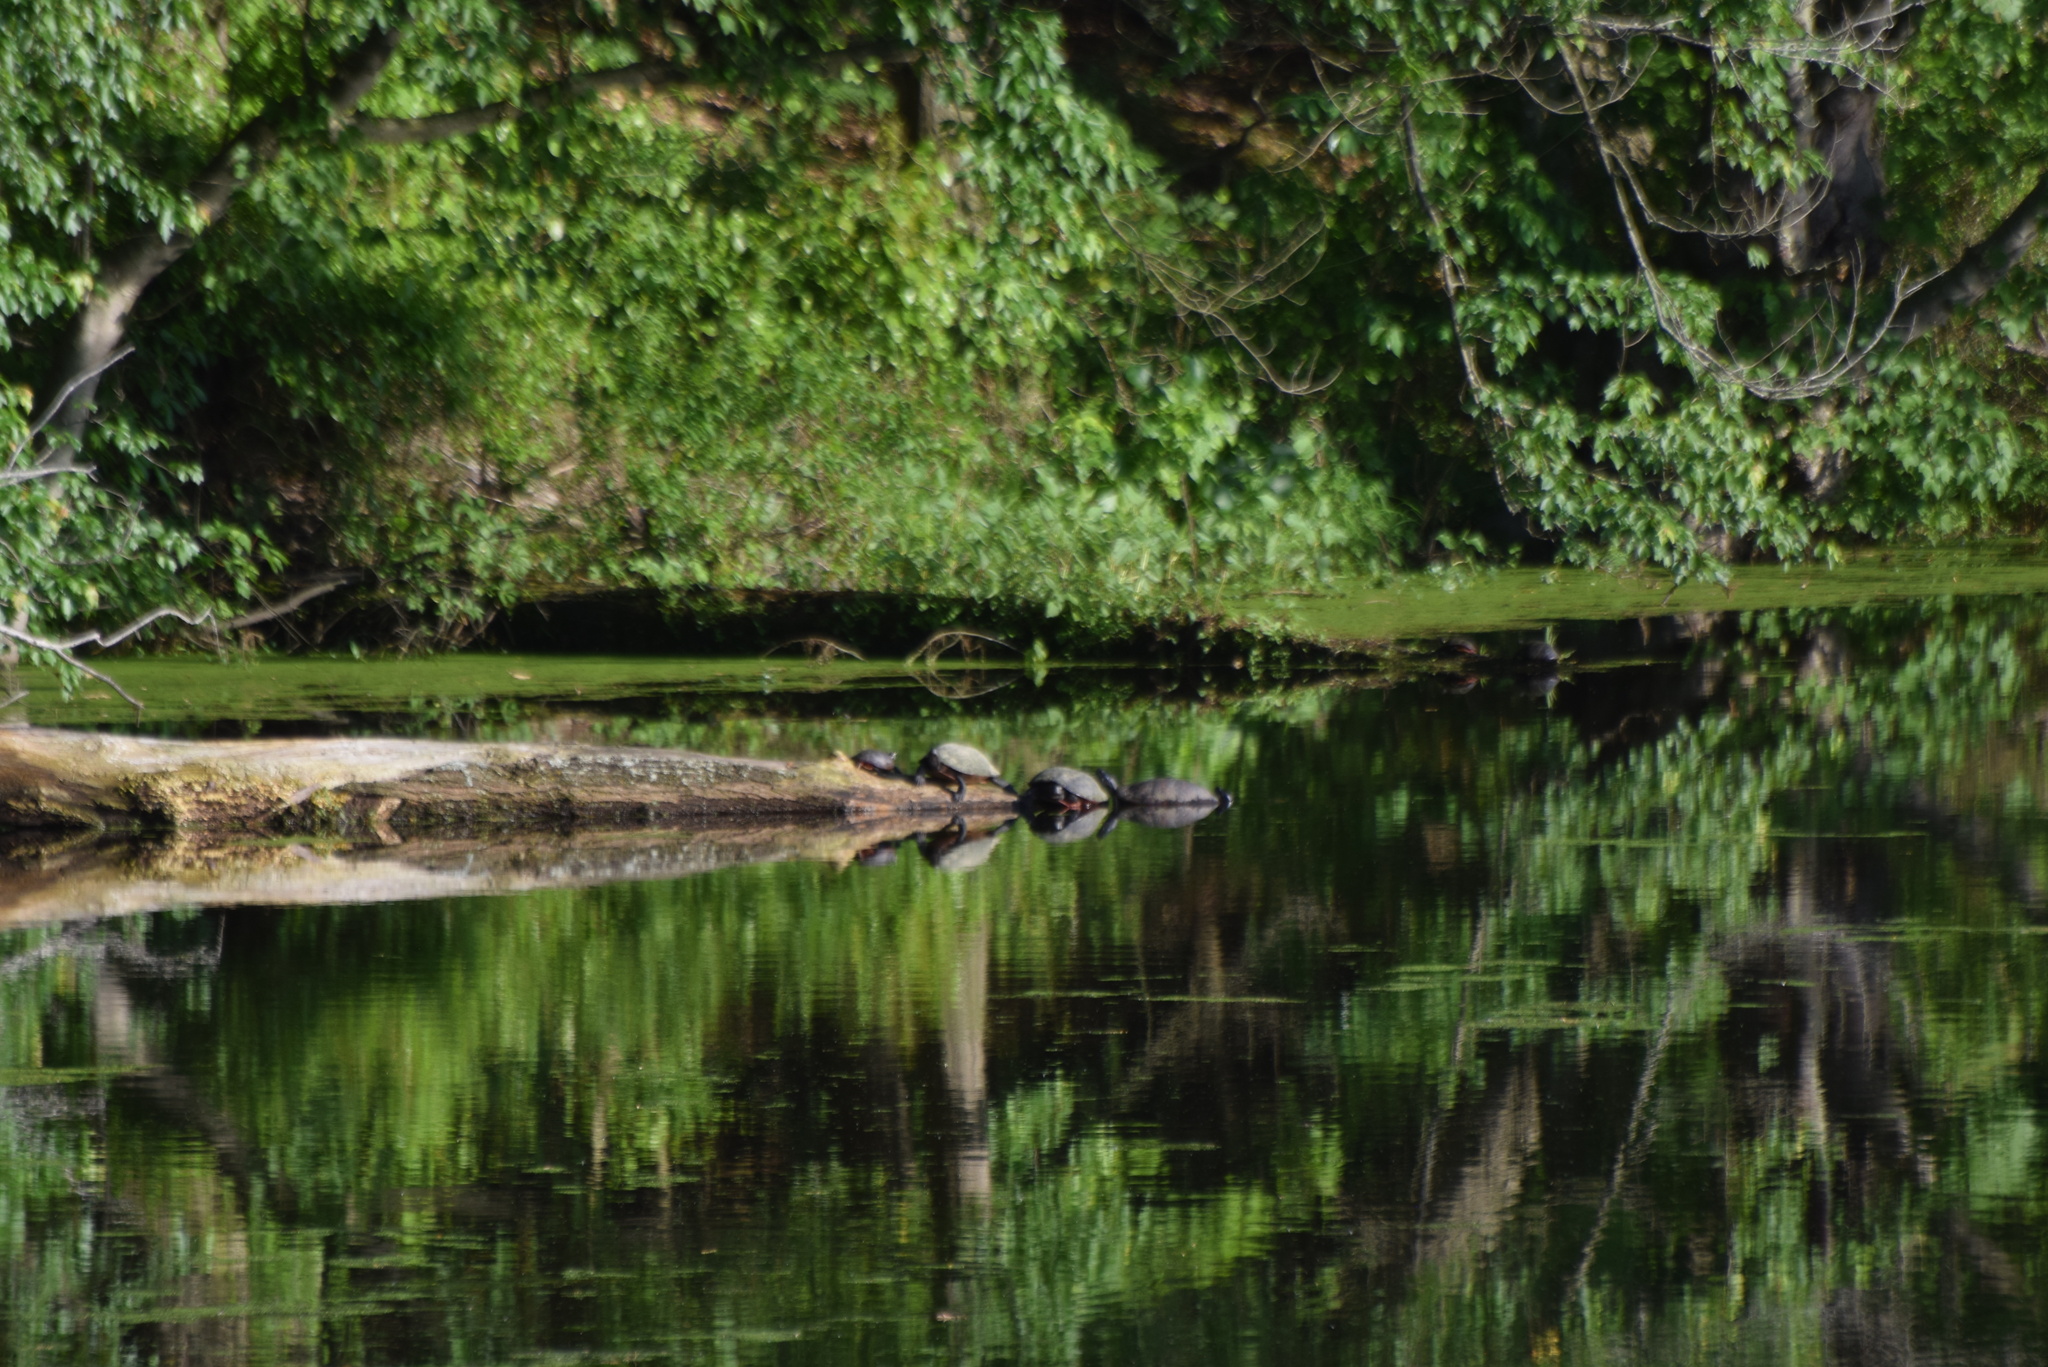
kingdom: Animalia
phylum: Chordata
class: Testudines
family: Emydidae
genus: Pseudemys
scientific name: Pseudemys rubriventris
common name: American red-bellied turtle
